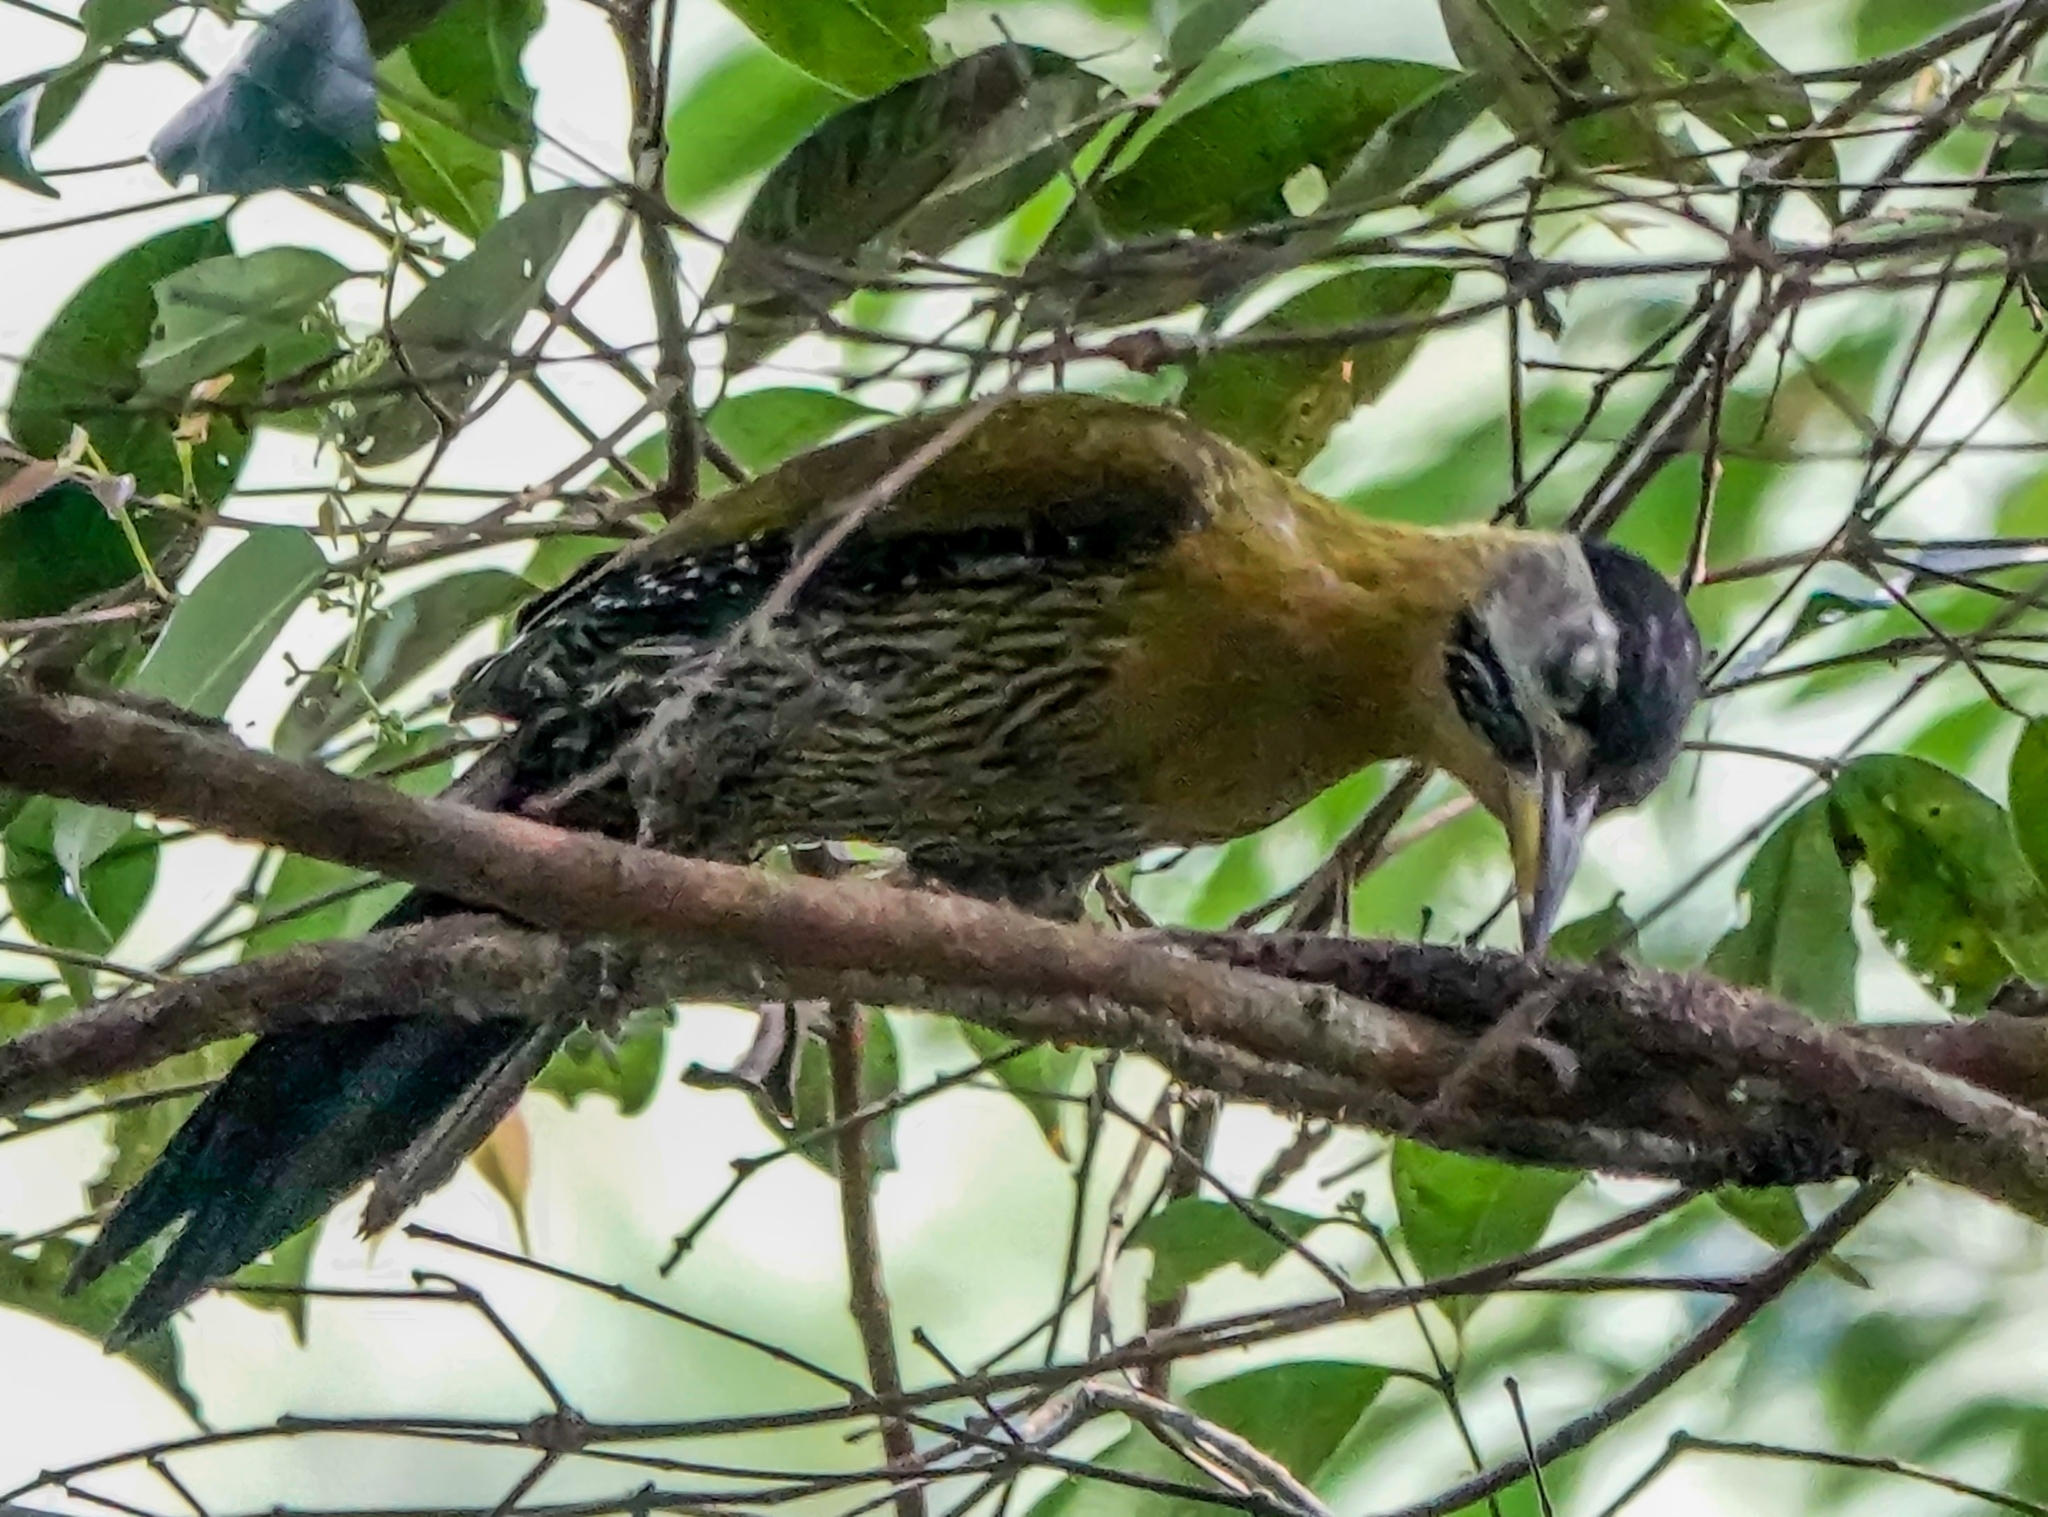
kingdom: Animalia
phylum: Chordata
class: Aves
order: Piciformes
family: Picidae
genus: Picus
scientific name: Picus vittatus
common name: Laced woodpecker
